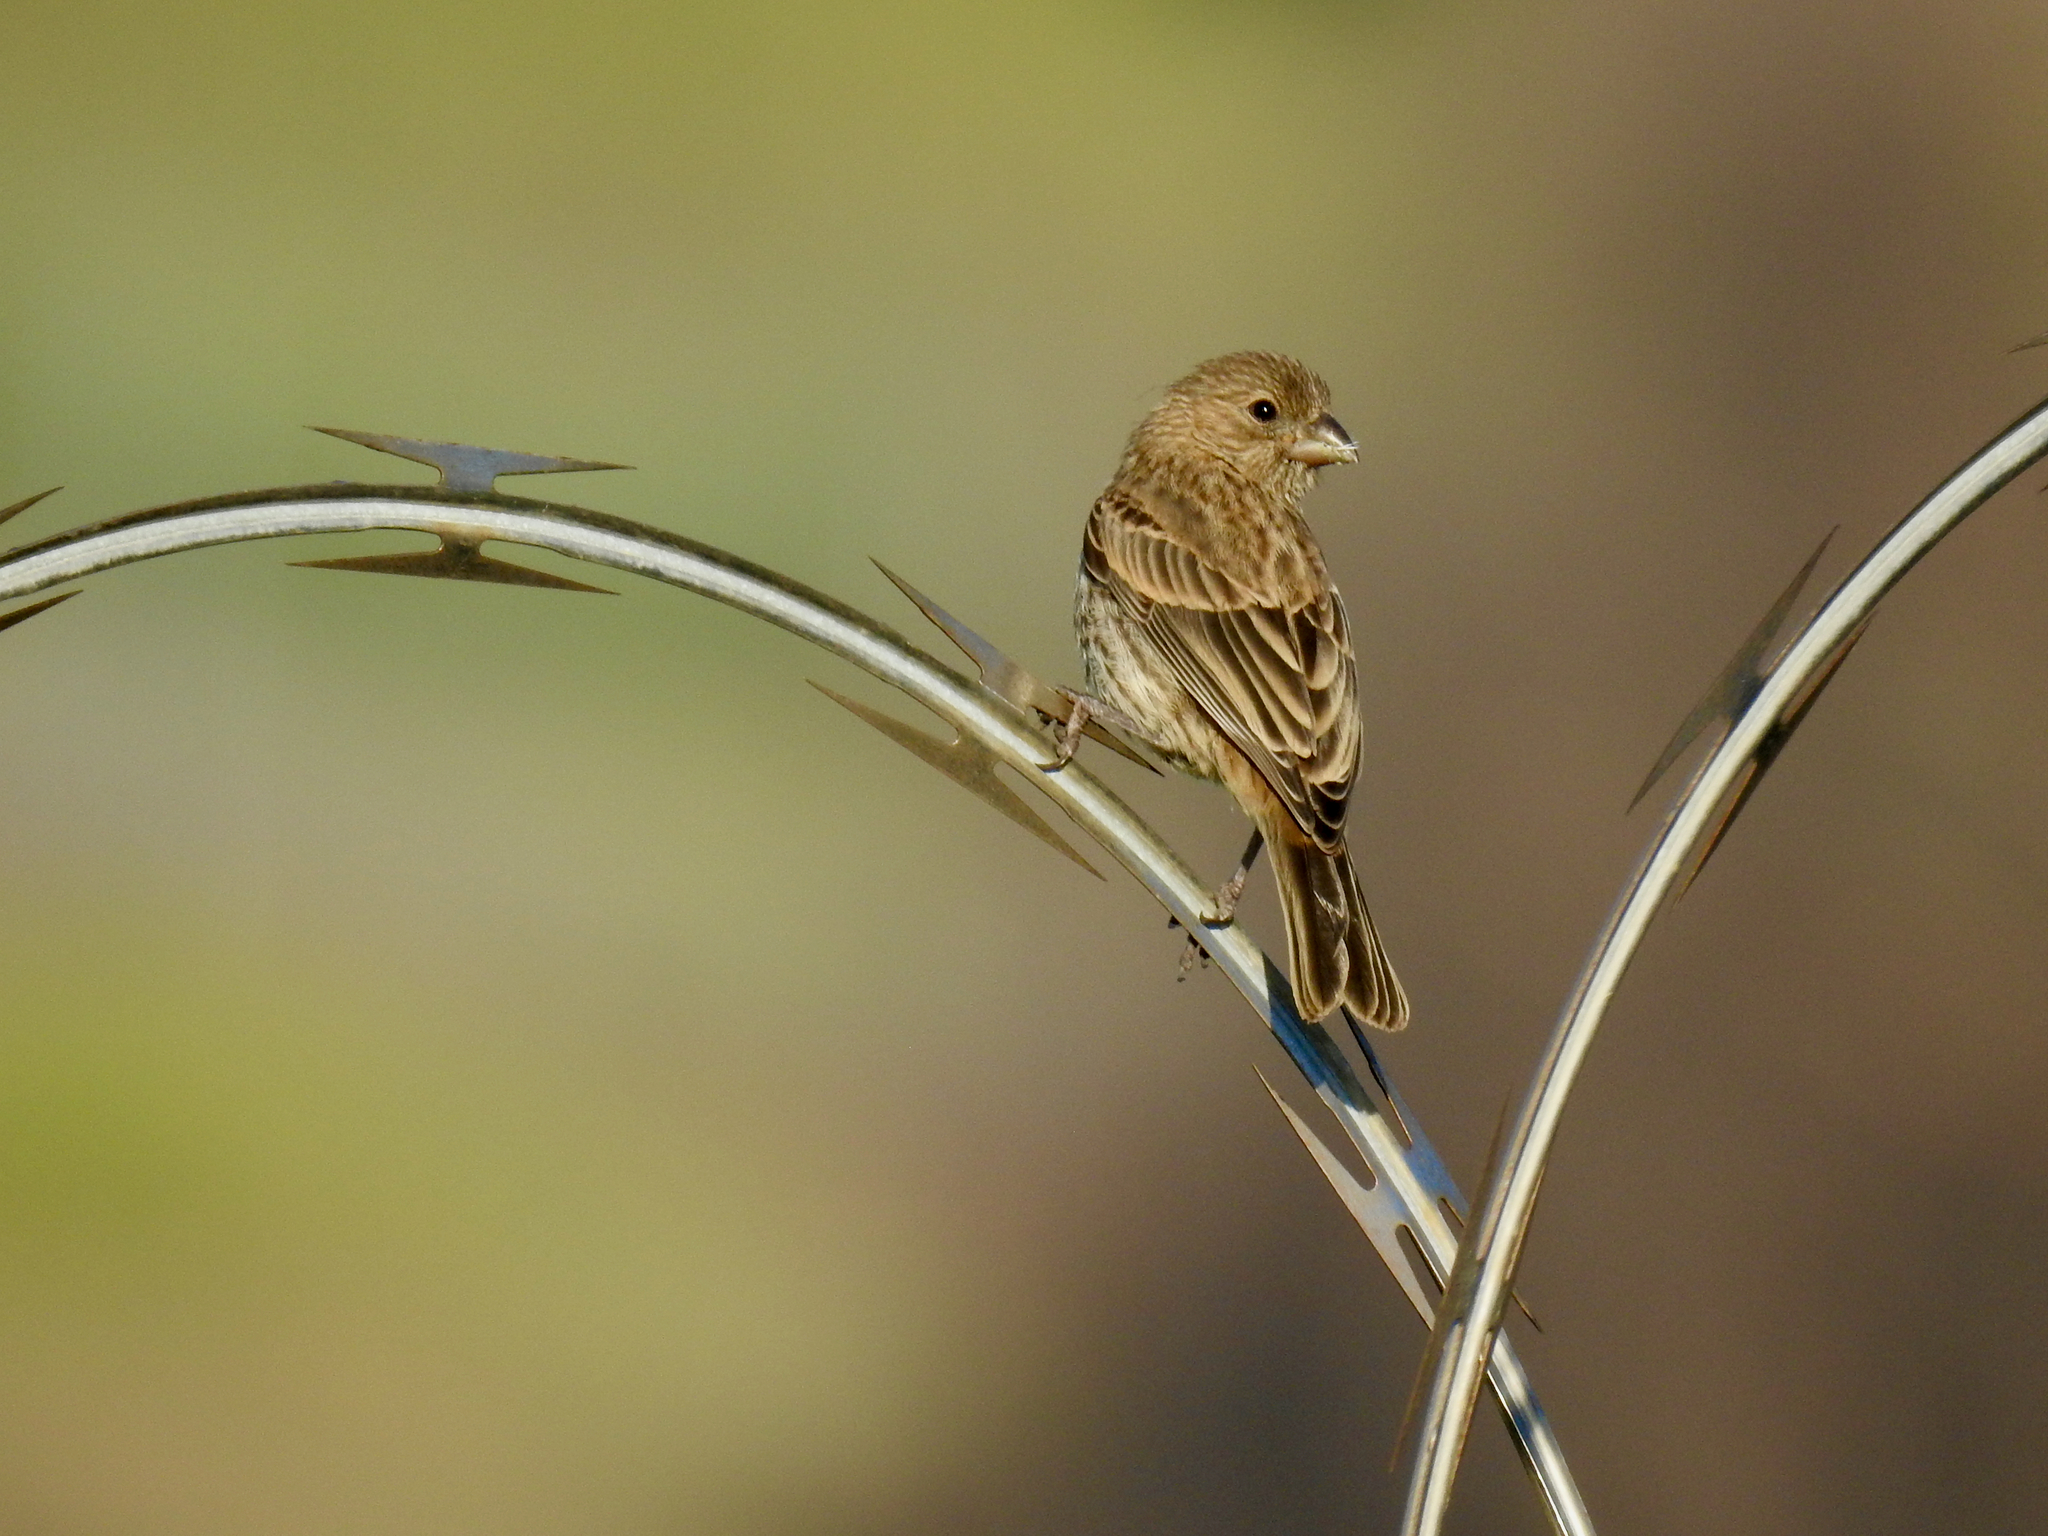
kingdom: Animalia
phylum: Chordata
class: Aves
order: Passeriformes
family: Fringillidae
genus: Haemorhous
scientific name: Haemorhous mexicanus
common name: House finch
